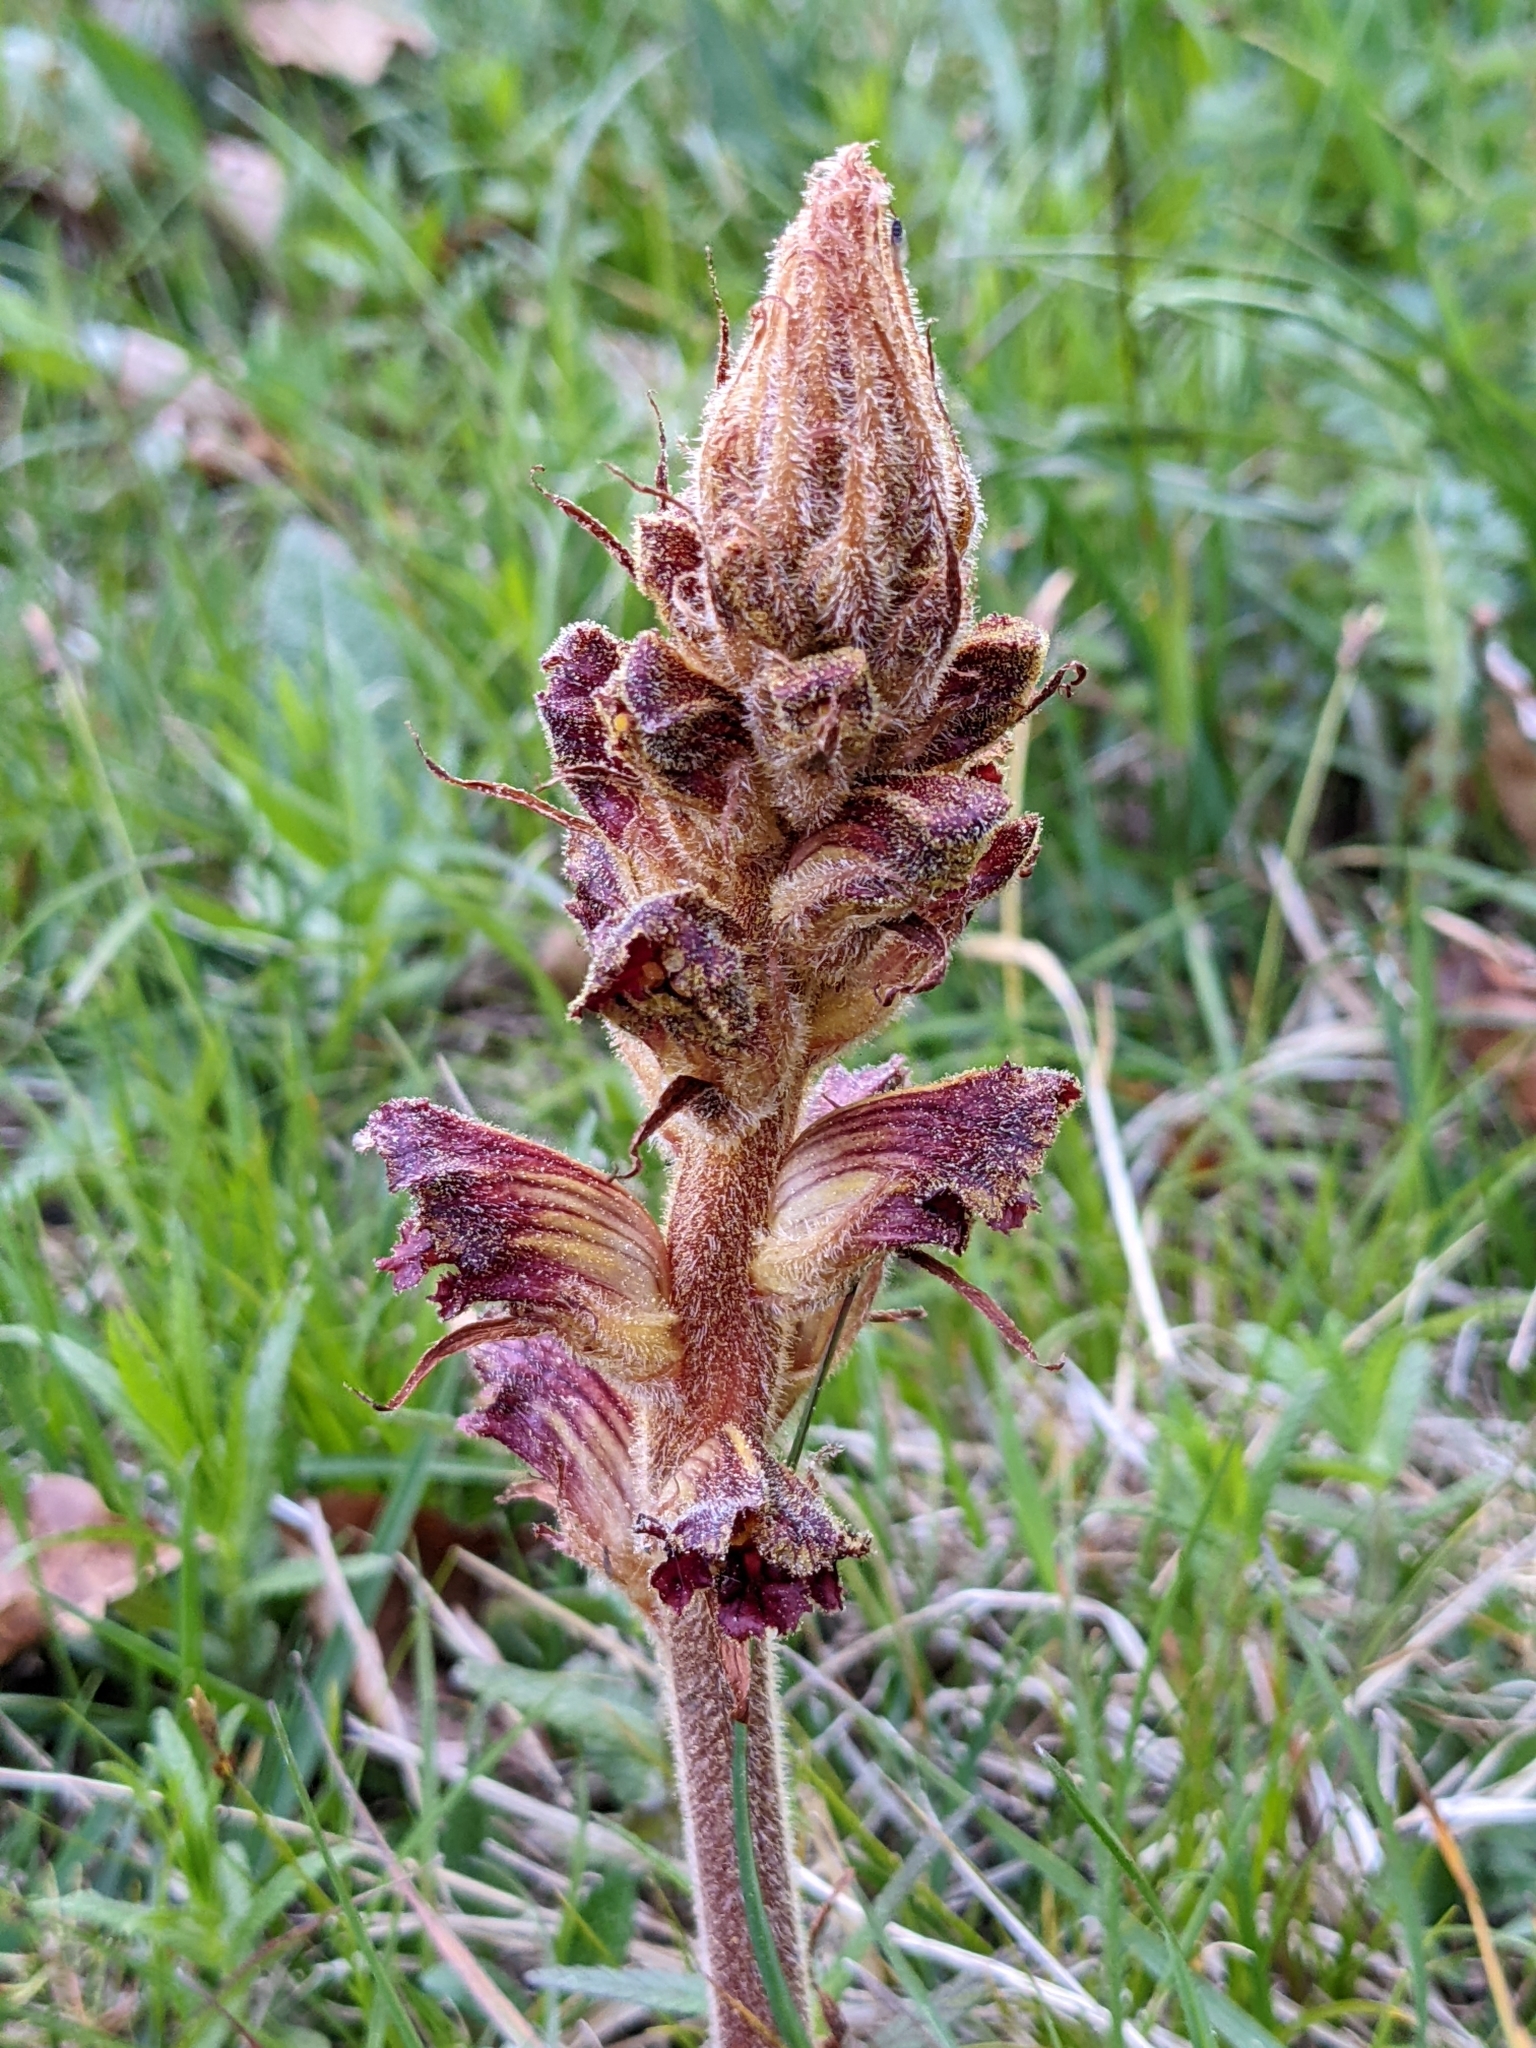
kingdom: Plantae
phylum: Tracheophyta
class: Magnoliopsida
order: Lamiales
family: Orobanchaceae
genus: Orobanche
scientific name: Orobanche gracilis
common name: Slender broomrape
